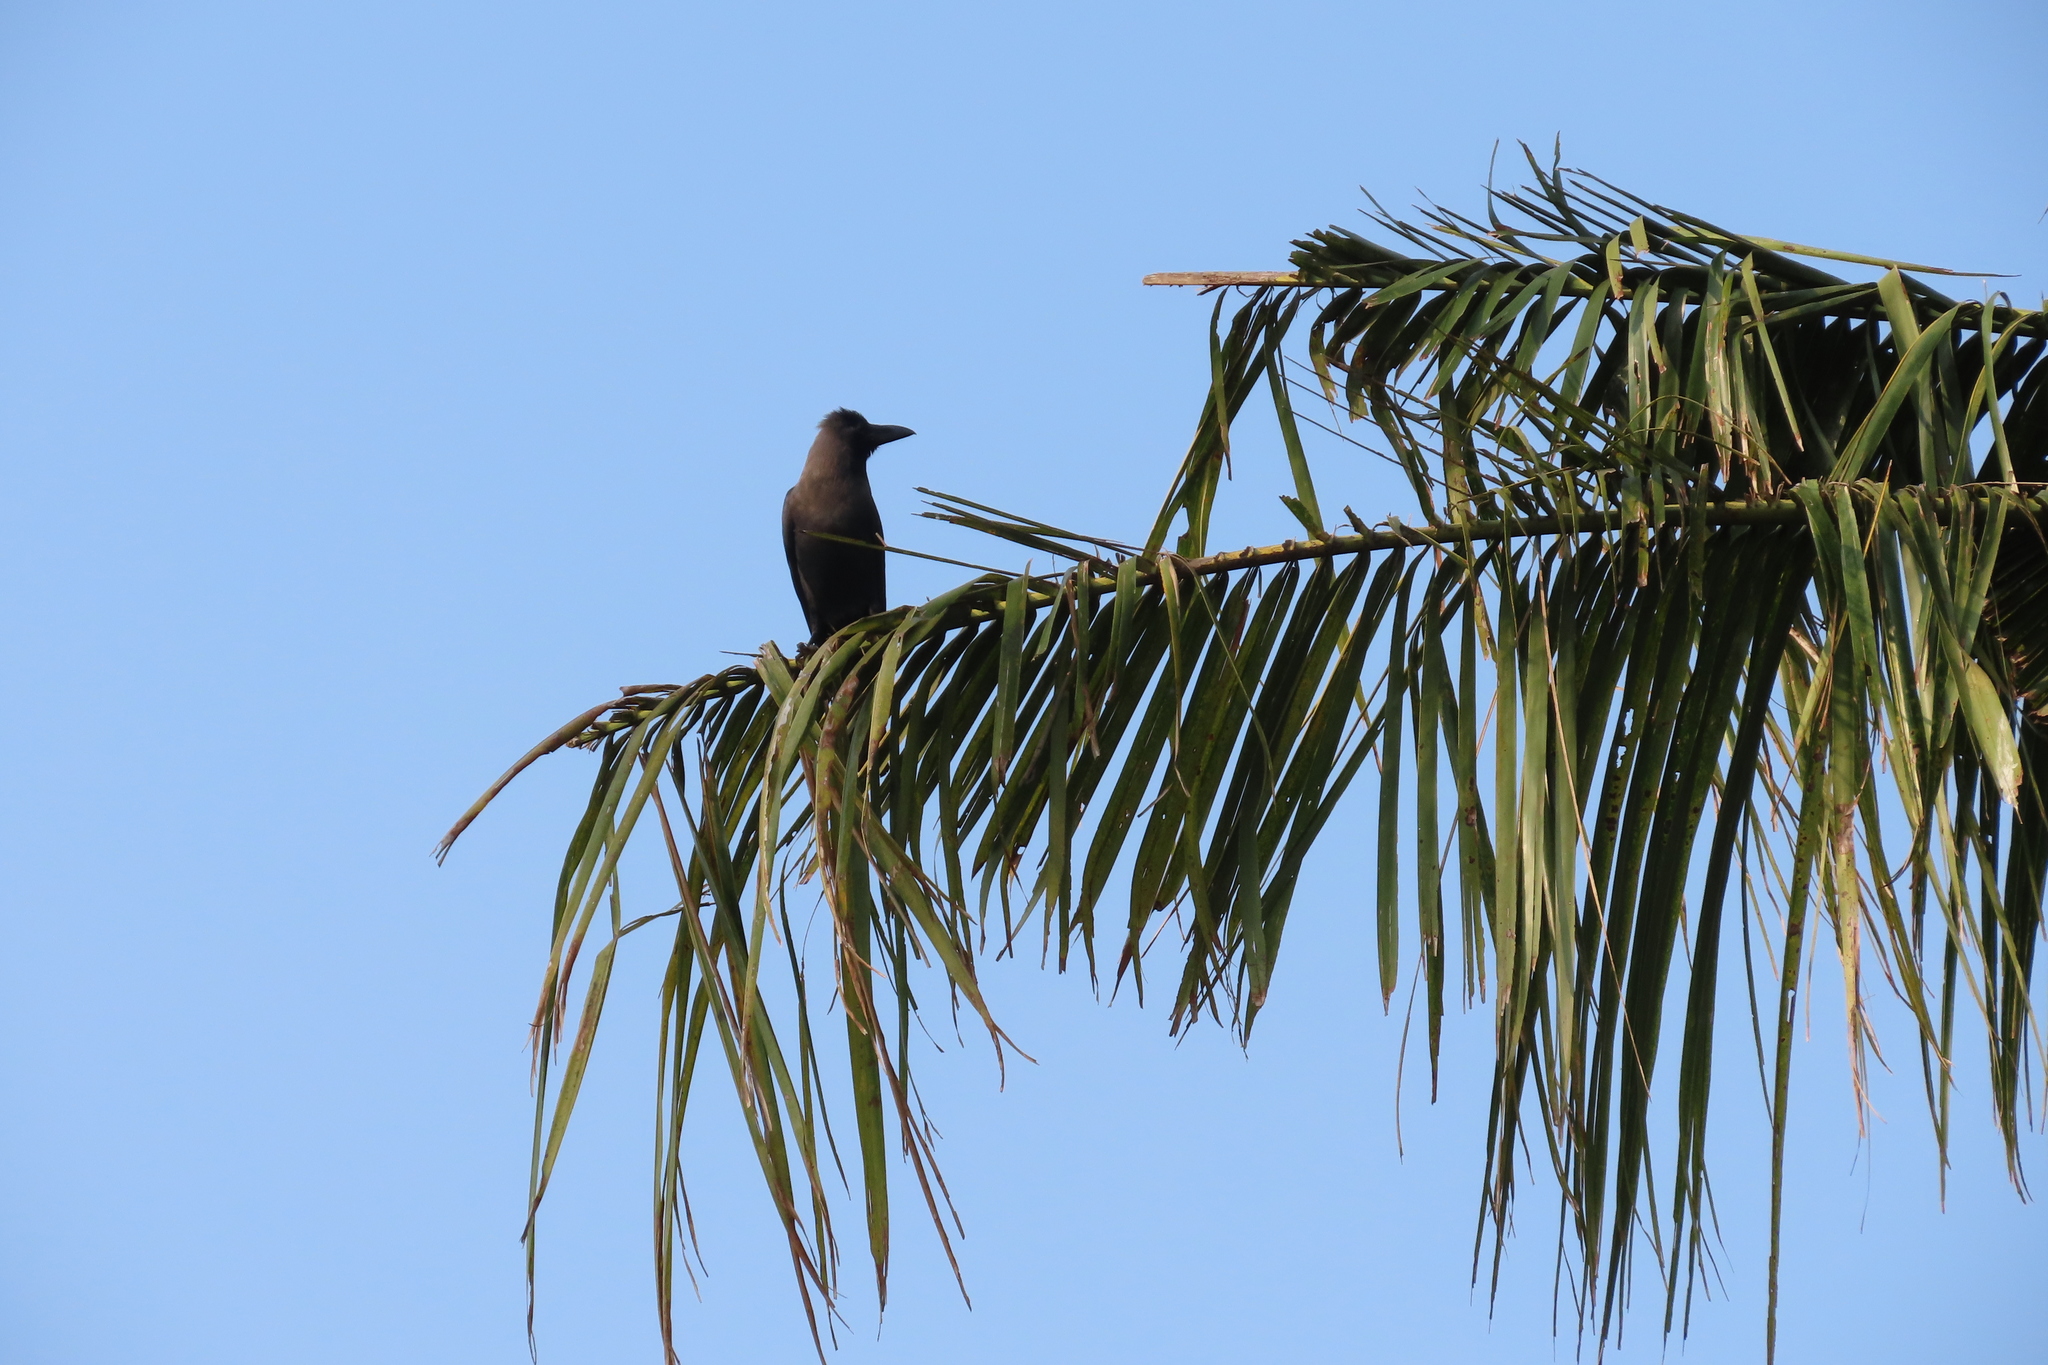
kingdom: Animalia
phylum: Chordata
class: Aves
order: Passeriformes
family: Corvidae
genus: Corvus
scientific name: Corvus splendens
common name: House crow
